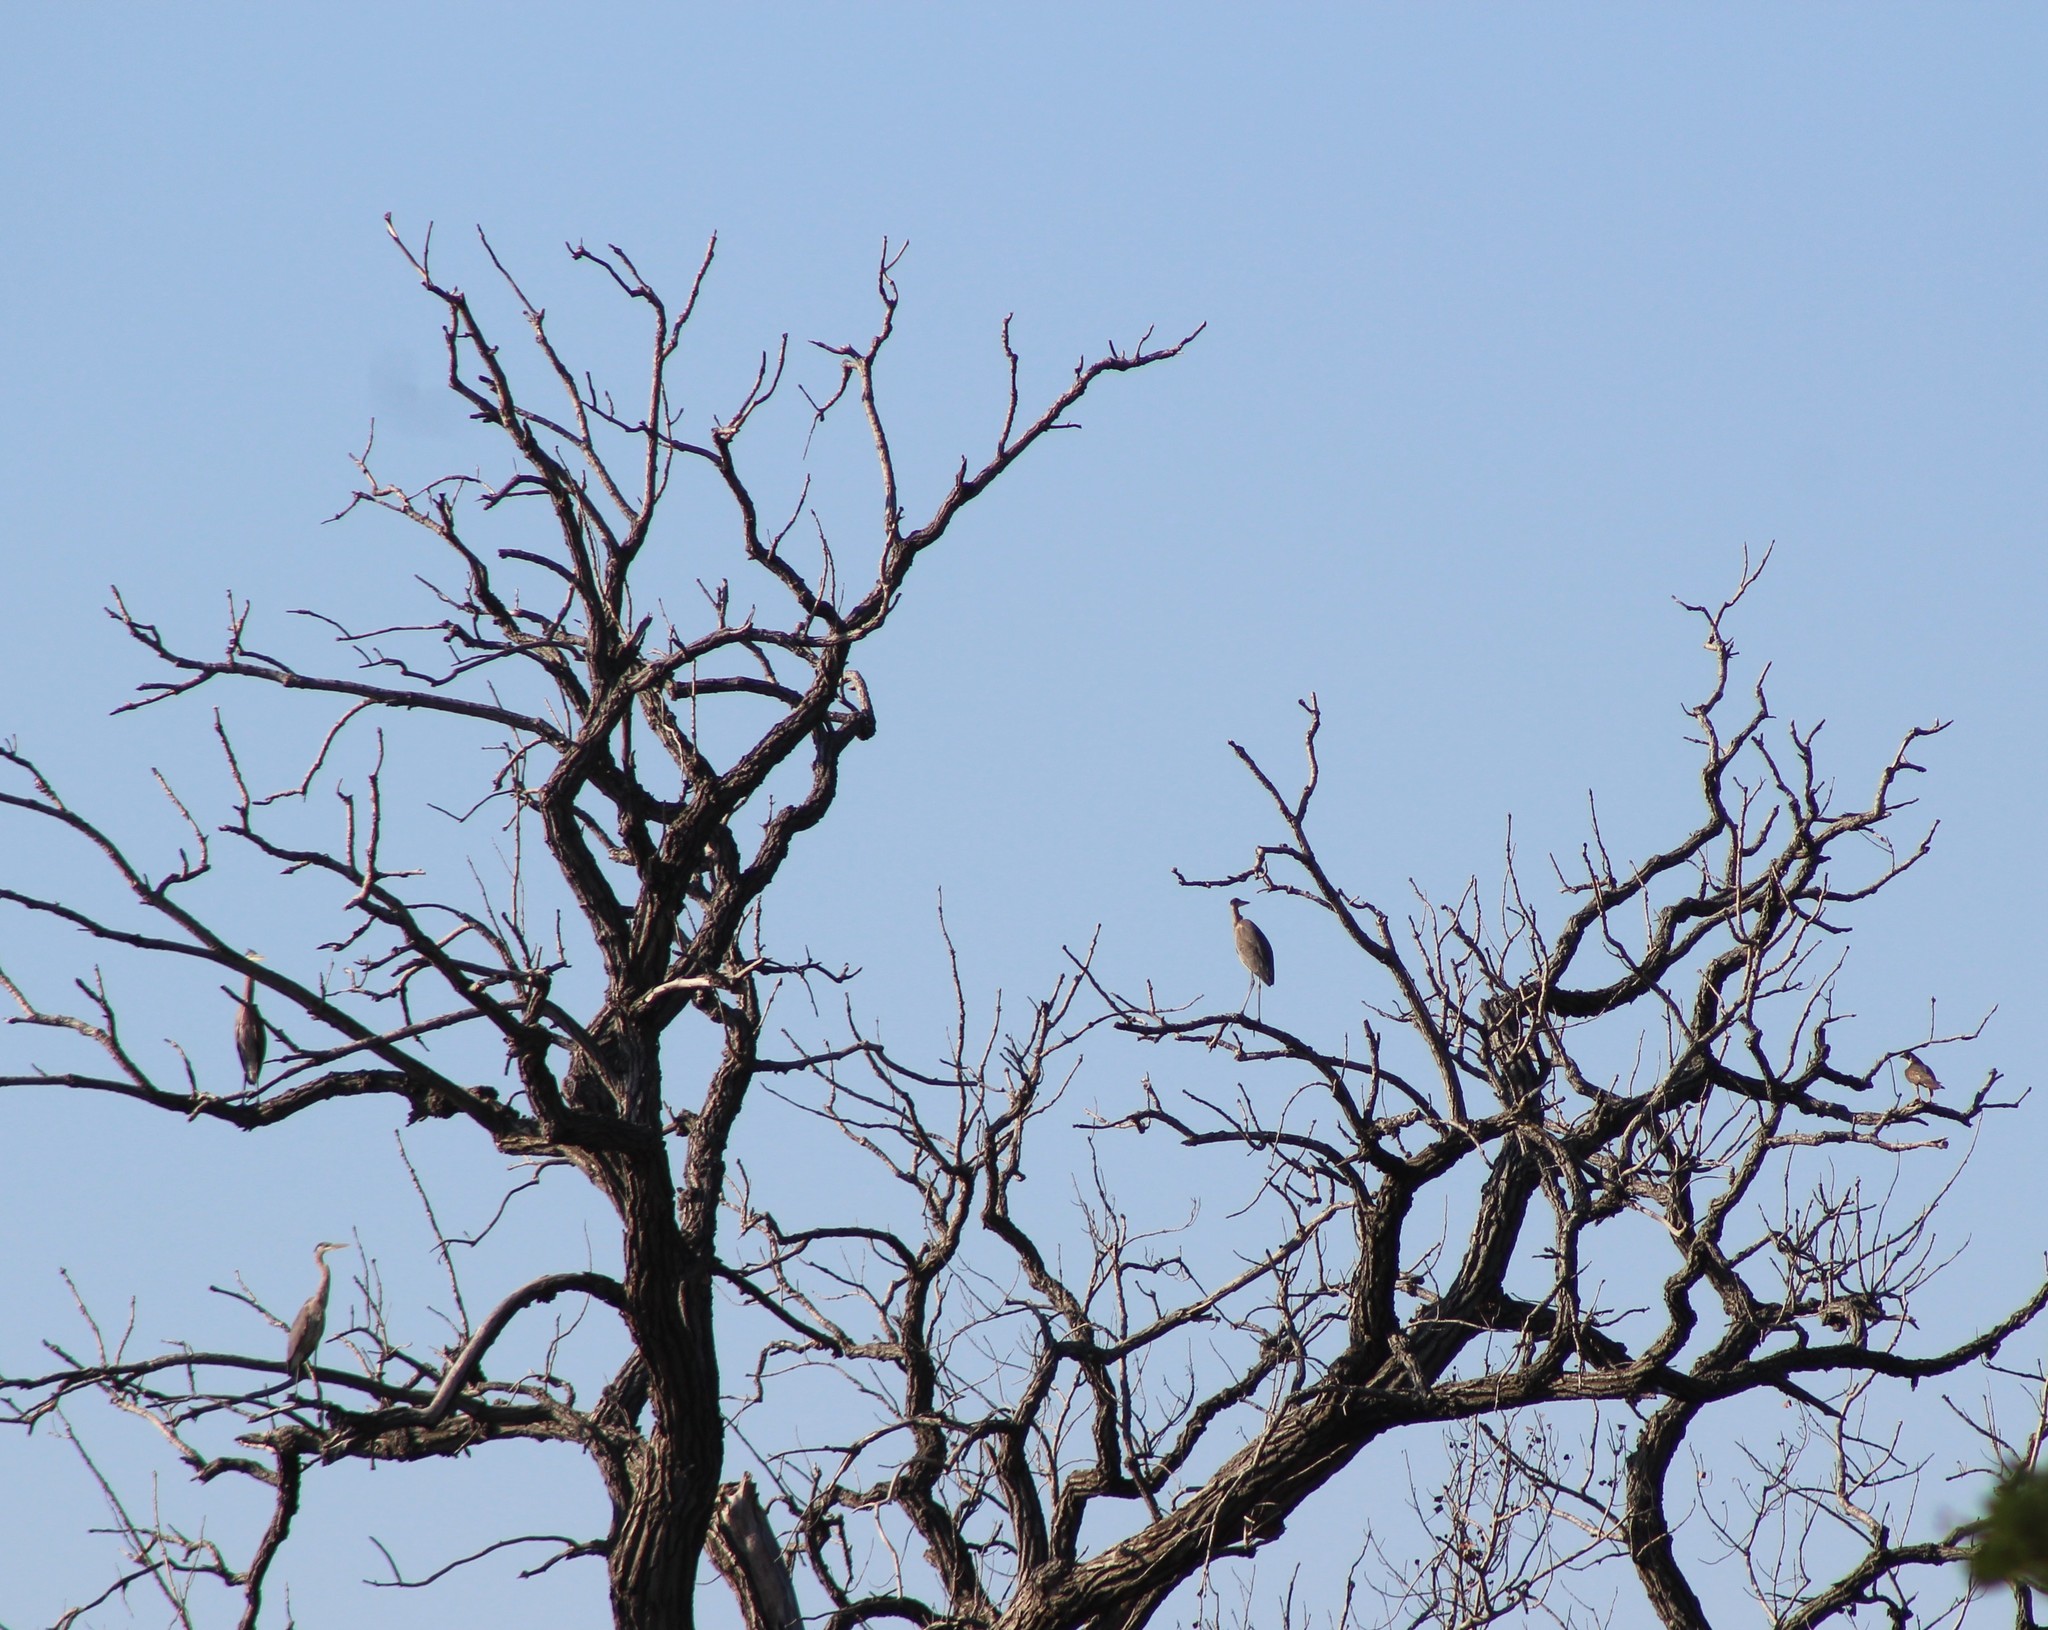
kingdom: Animalia
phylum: Chordata
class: Aves
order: Pelecaniformes
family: Ardeidae
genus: Ardea
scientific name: Ardea herodias
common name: Great blue heron
